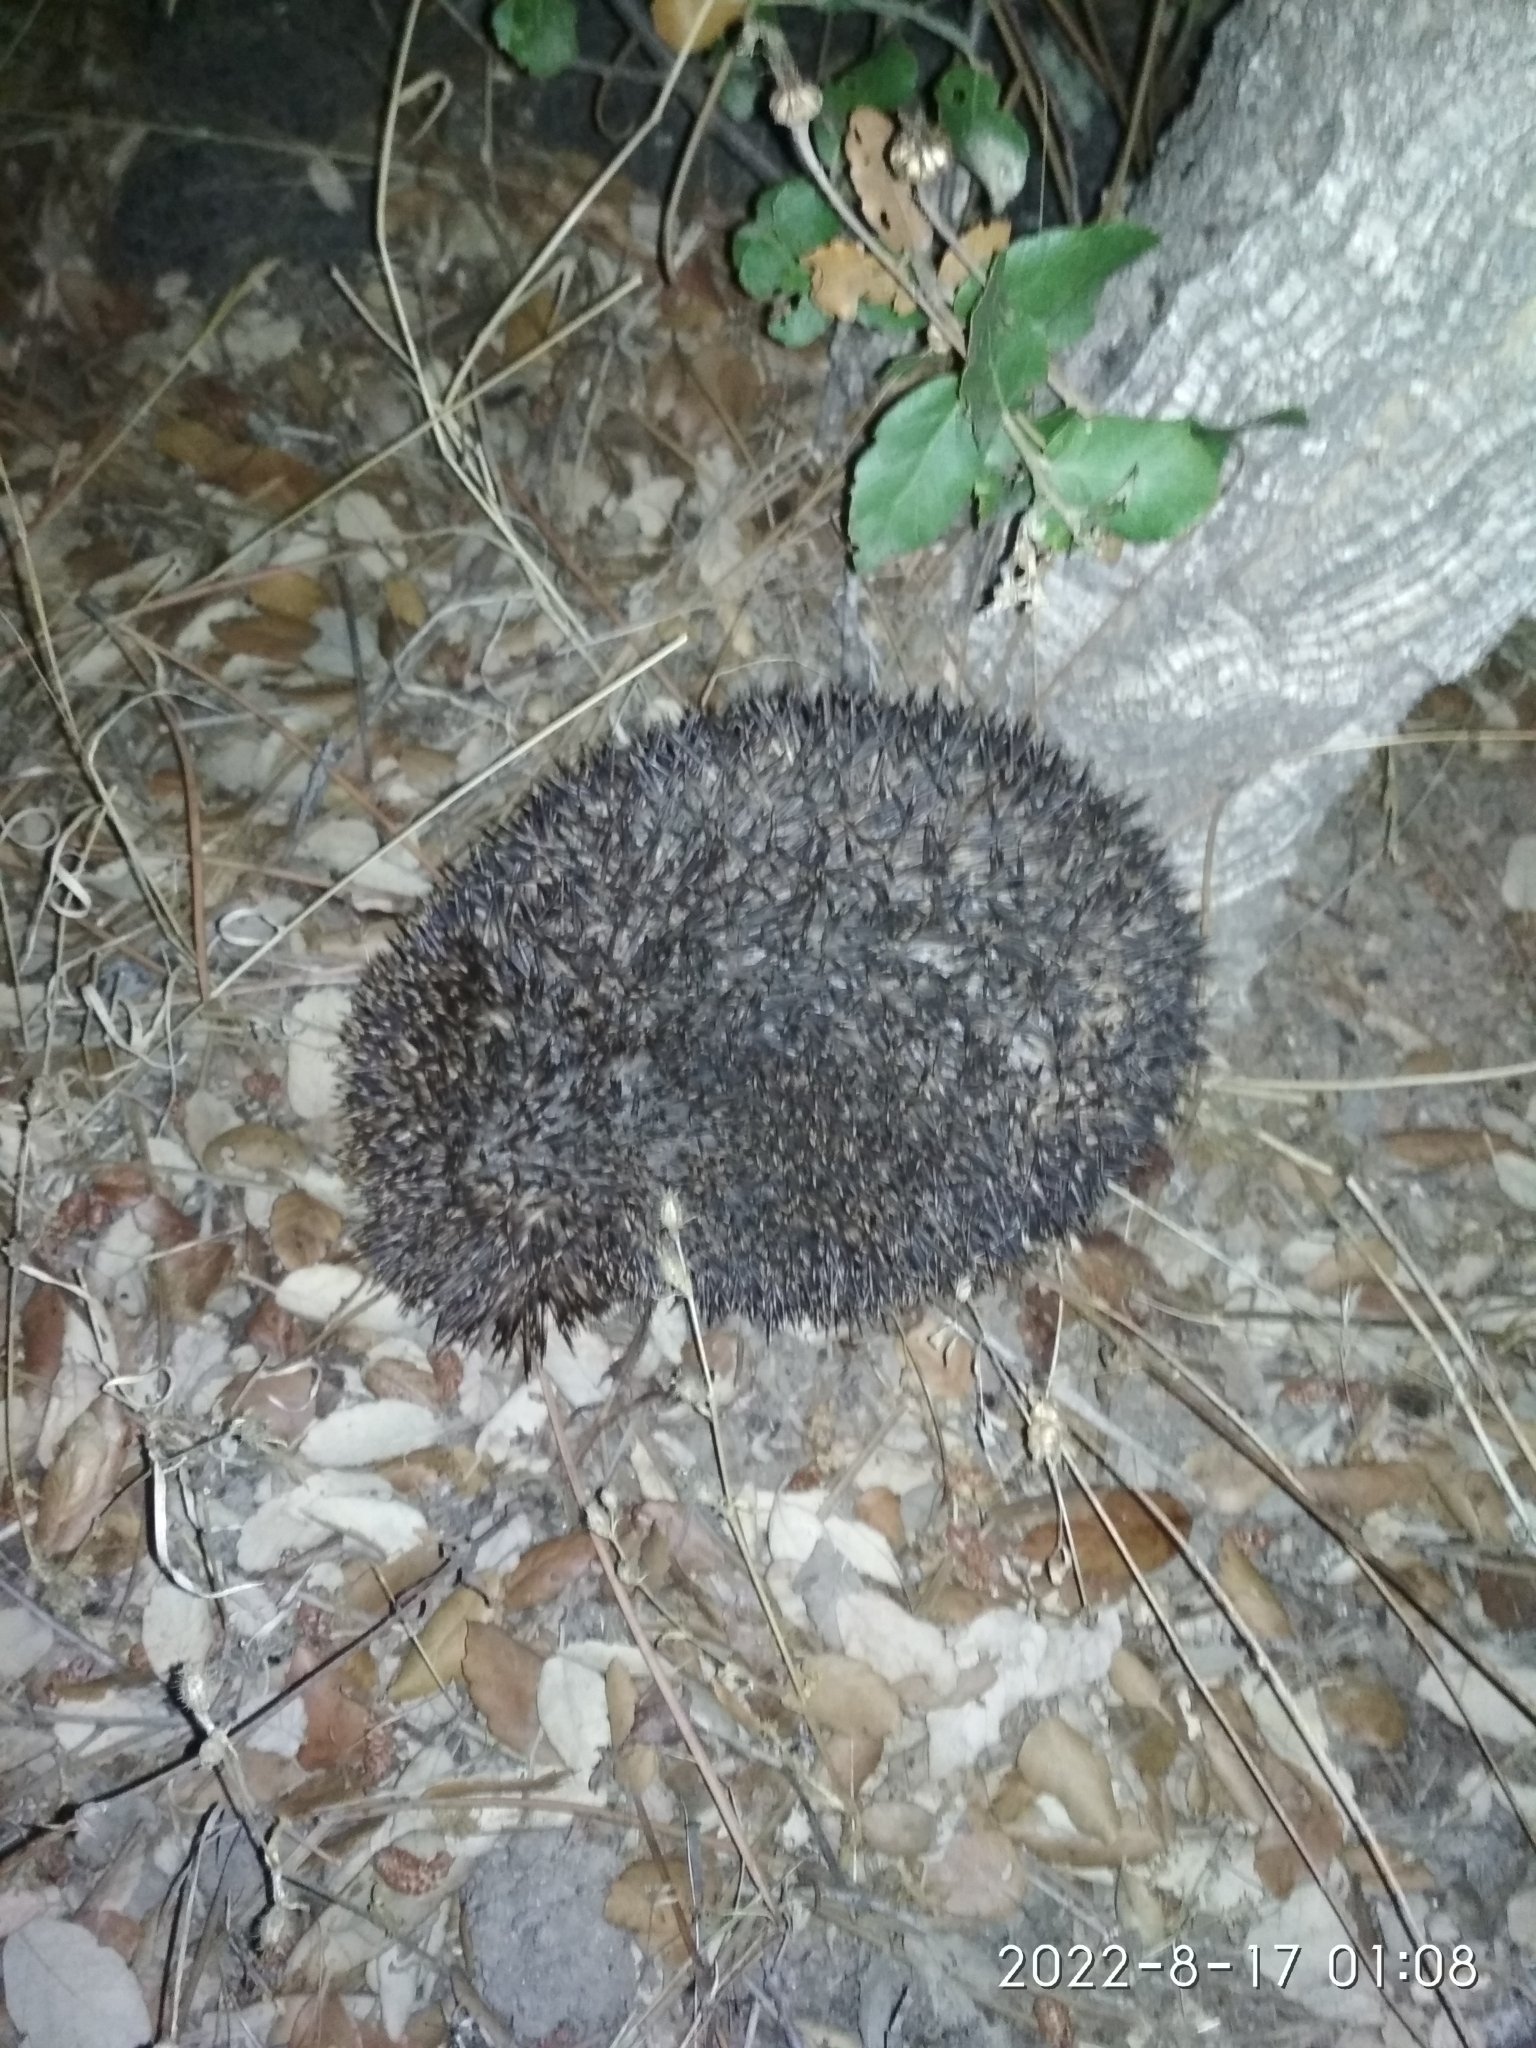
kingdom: Animalia
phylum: Chordata
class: Mammalia
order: Erinaceomorpha
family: Erinaceidae
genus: Erinaceus
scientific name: Erinaceus europaeus
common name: West european hedgehog
